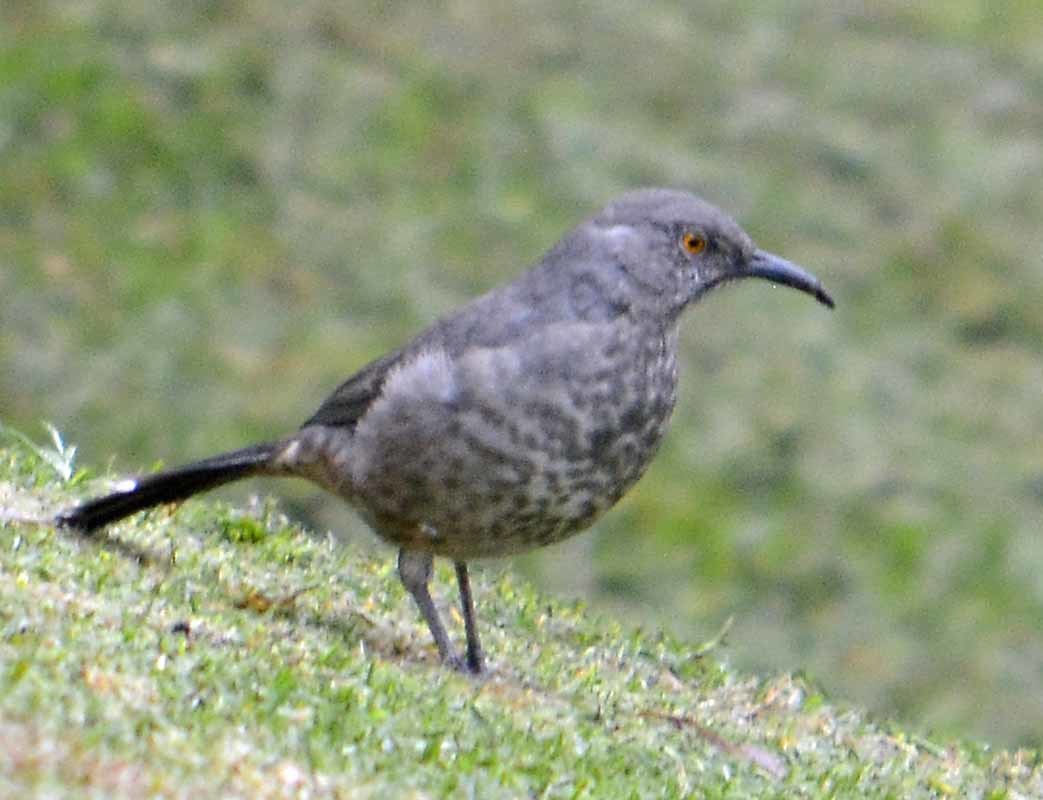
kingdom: Animalia
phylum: Chordata
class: Aves
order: Passeriformes
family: Mimidae
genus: Toxostoma
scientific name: Toxostoma curvirostre
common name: Curve-billed thrasher
